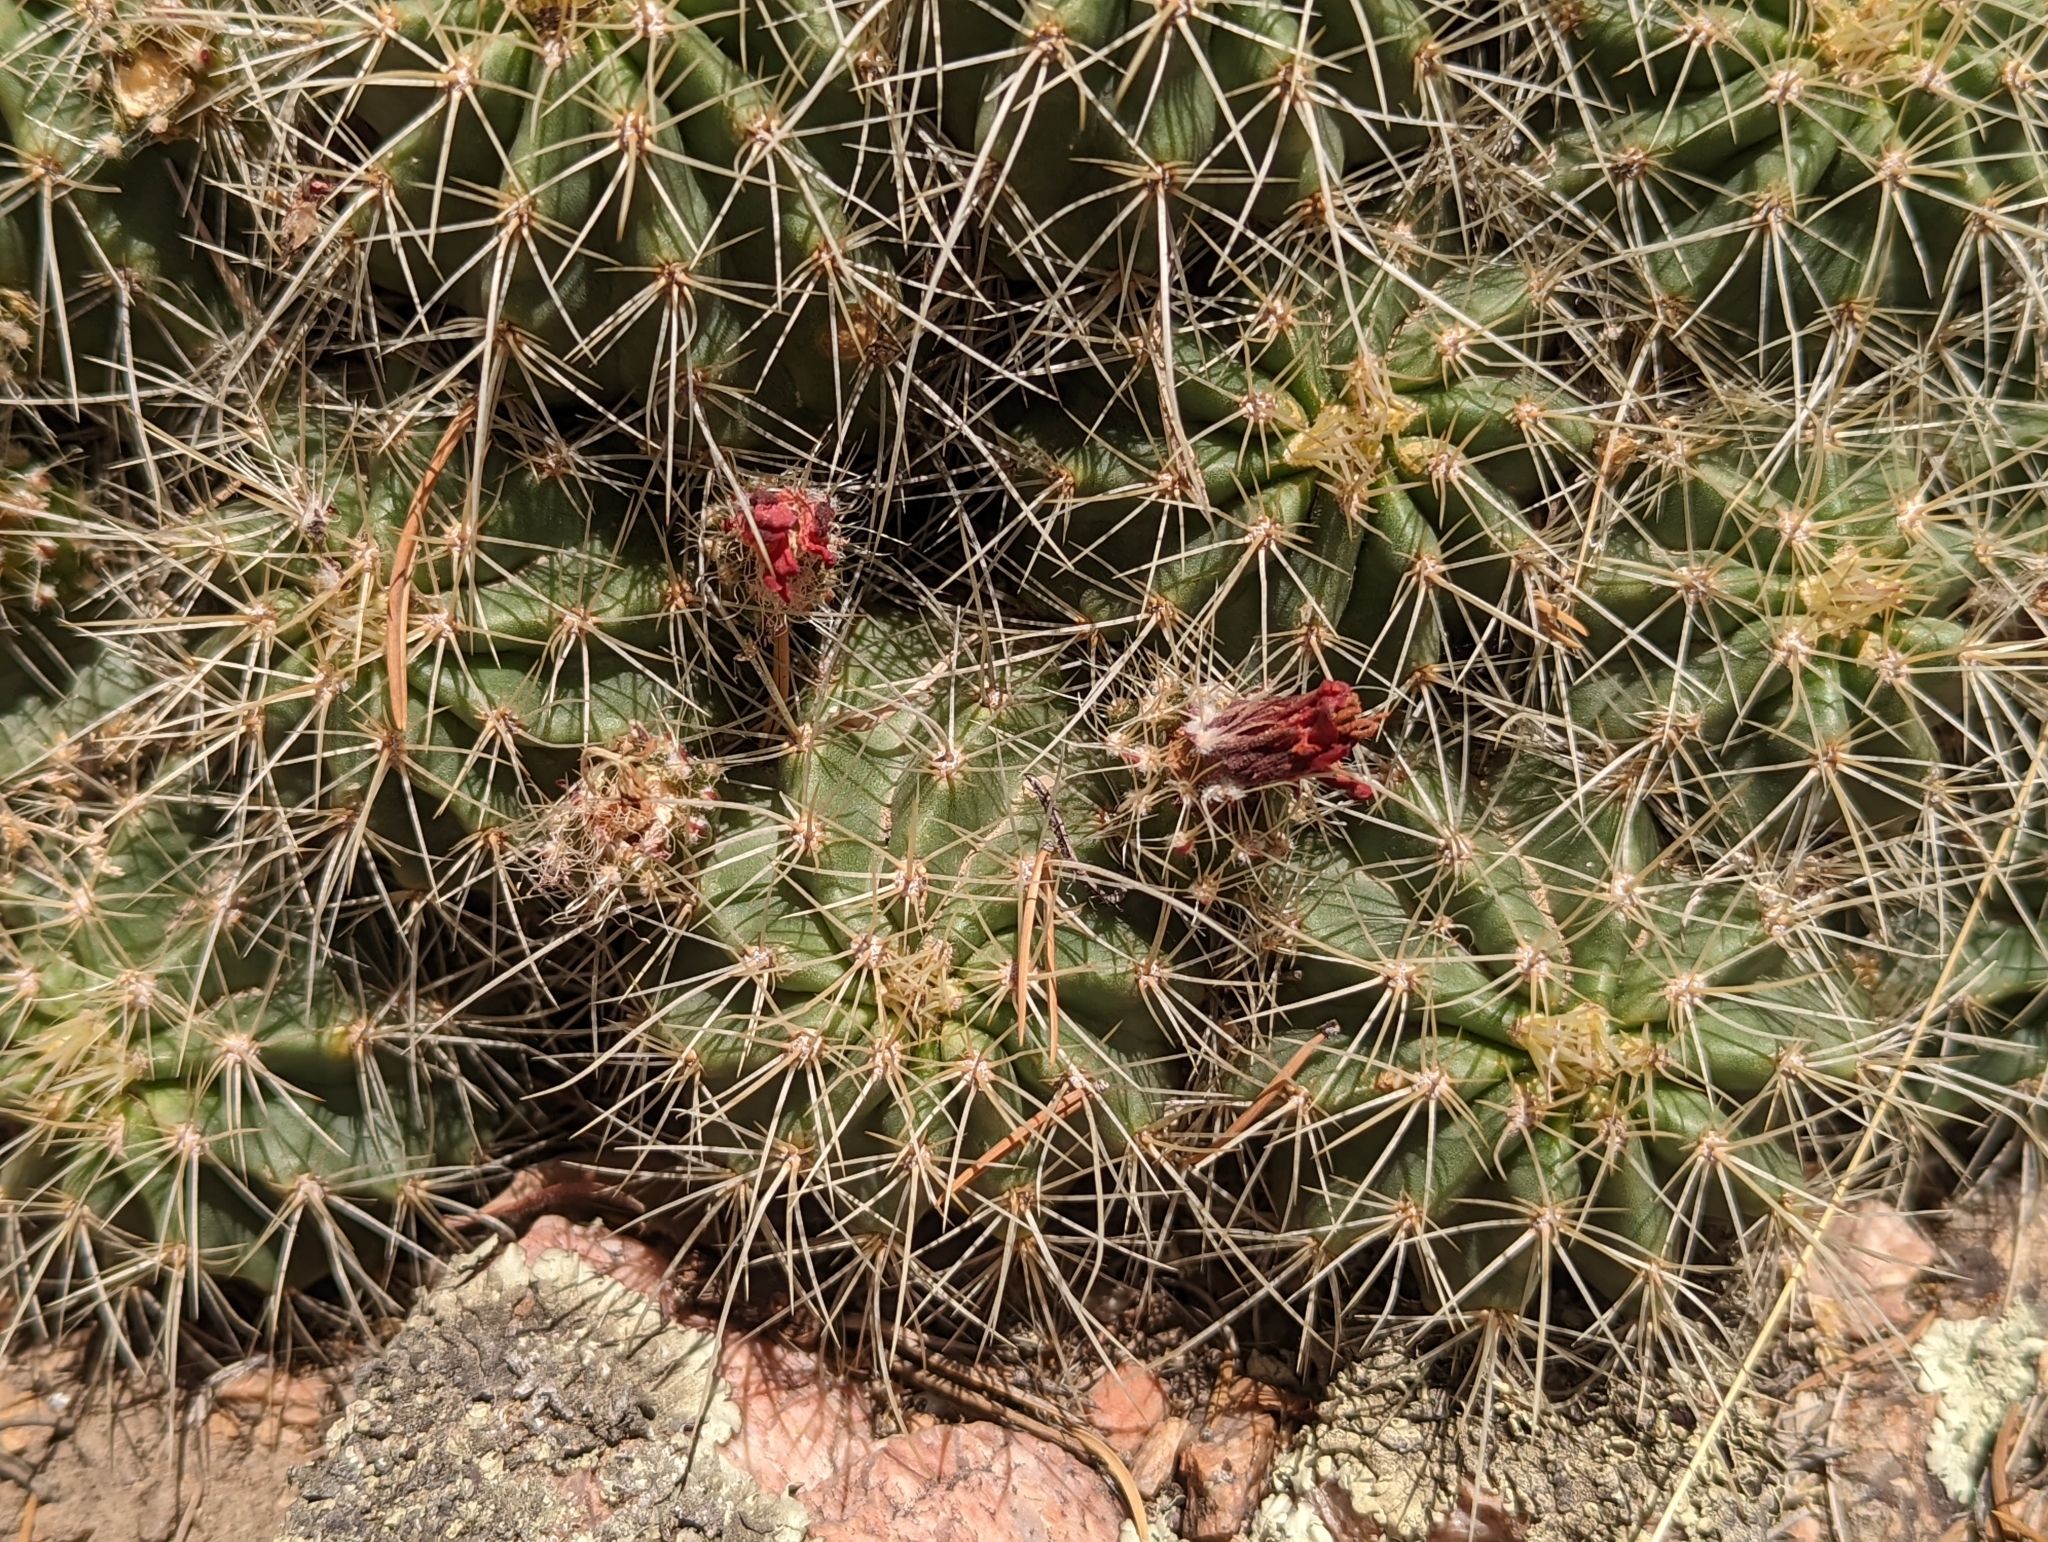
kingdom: Plantae
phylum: Tracheophyta
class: Magnoliopsida
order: Caryophyllales
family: Cactaceae
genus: Echinocereus
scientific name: Echinocereus coccineus
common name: Scarlet hedgehog cactus
